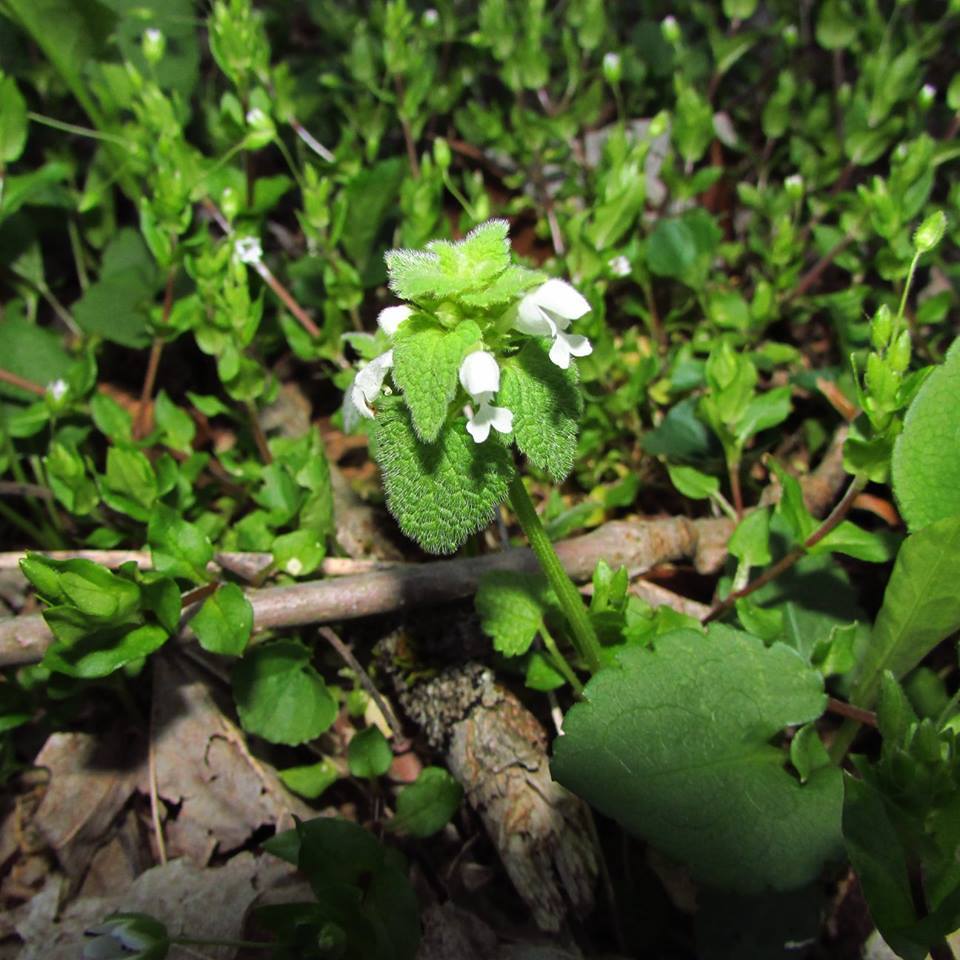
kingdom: Plantae
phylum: Tracheophyta
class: Magnoliopsida
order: Lamiales
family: Lamiaceae
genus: Lamium
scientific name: Lamium purpureum
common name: Red dead-nettle
